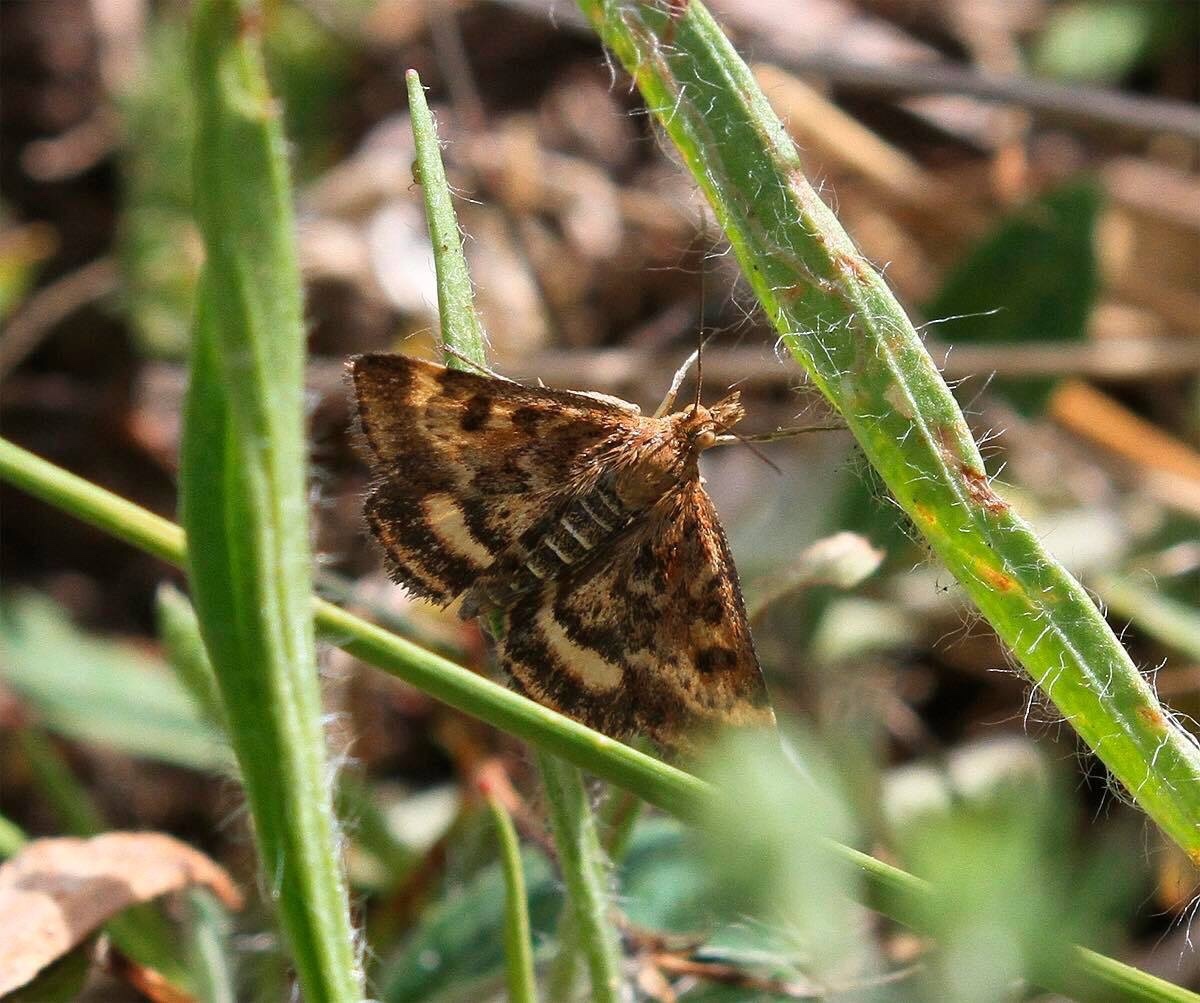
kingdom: Animalia
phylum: Arthropoda
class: Insecta
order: Lepidoptera
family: Crambidae
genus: Pyrausta
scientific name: Pyrausta despicata
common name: Straw-barred pearl
